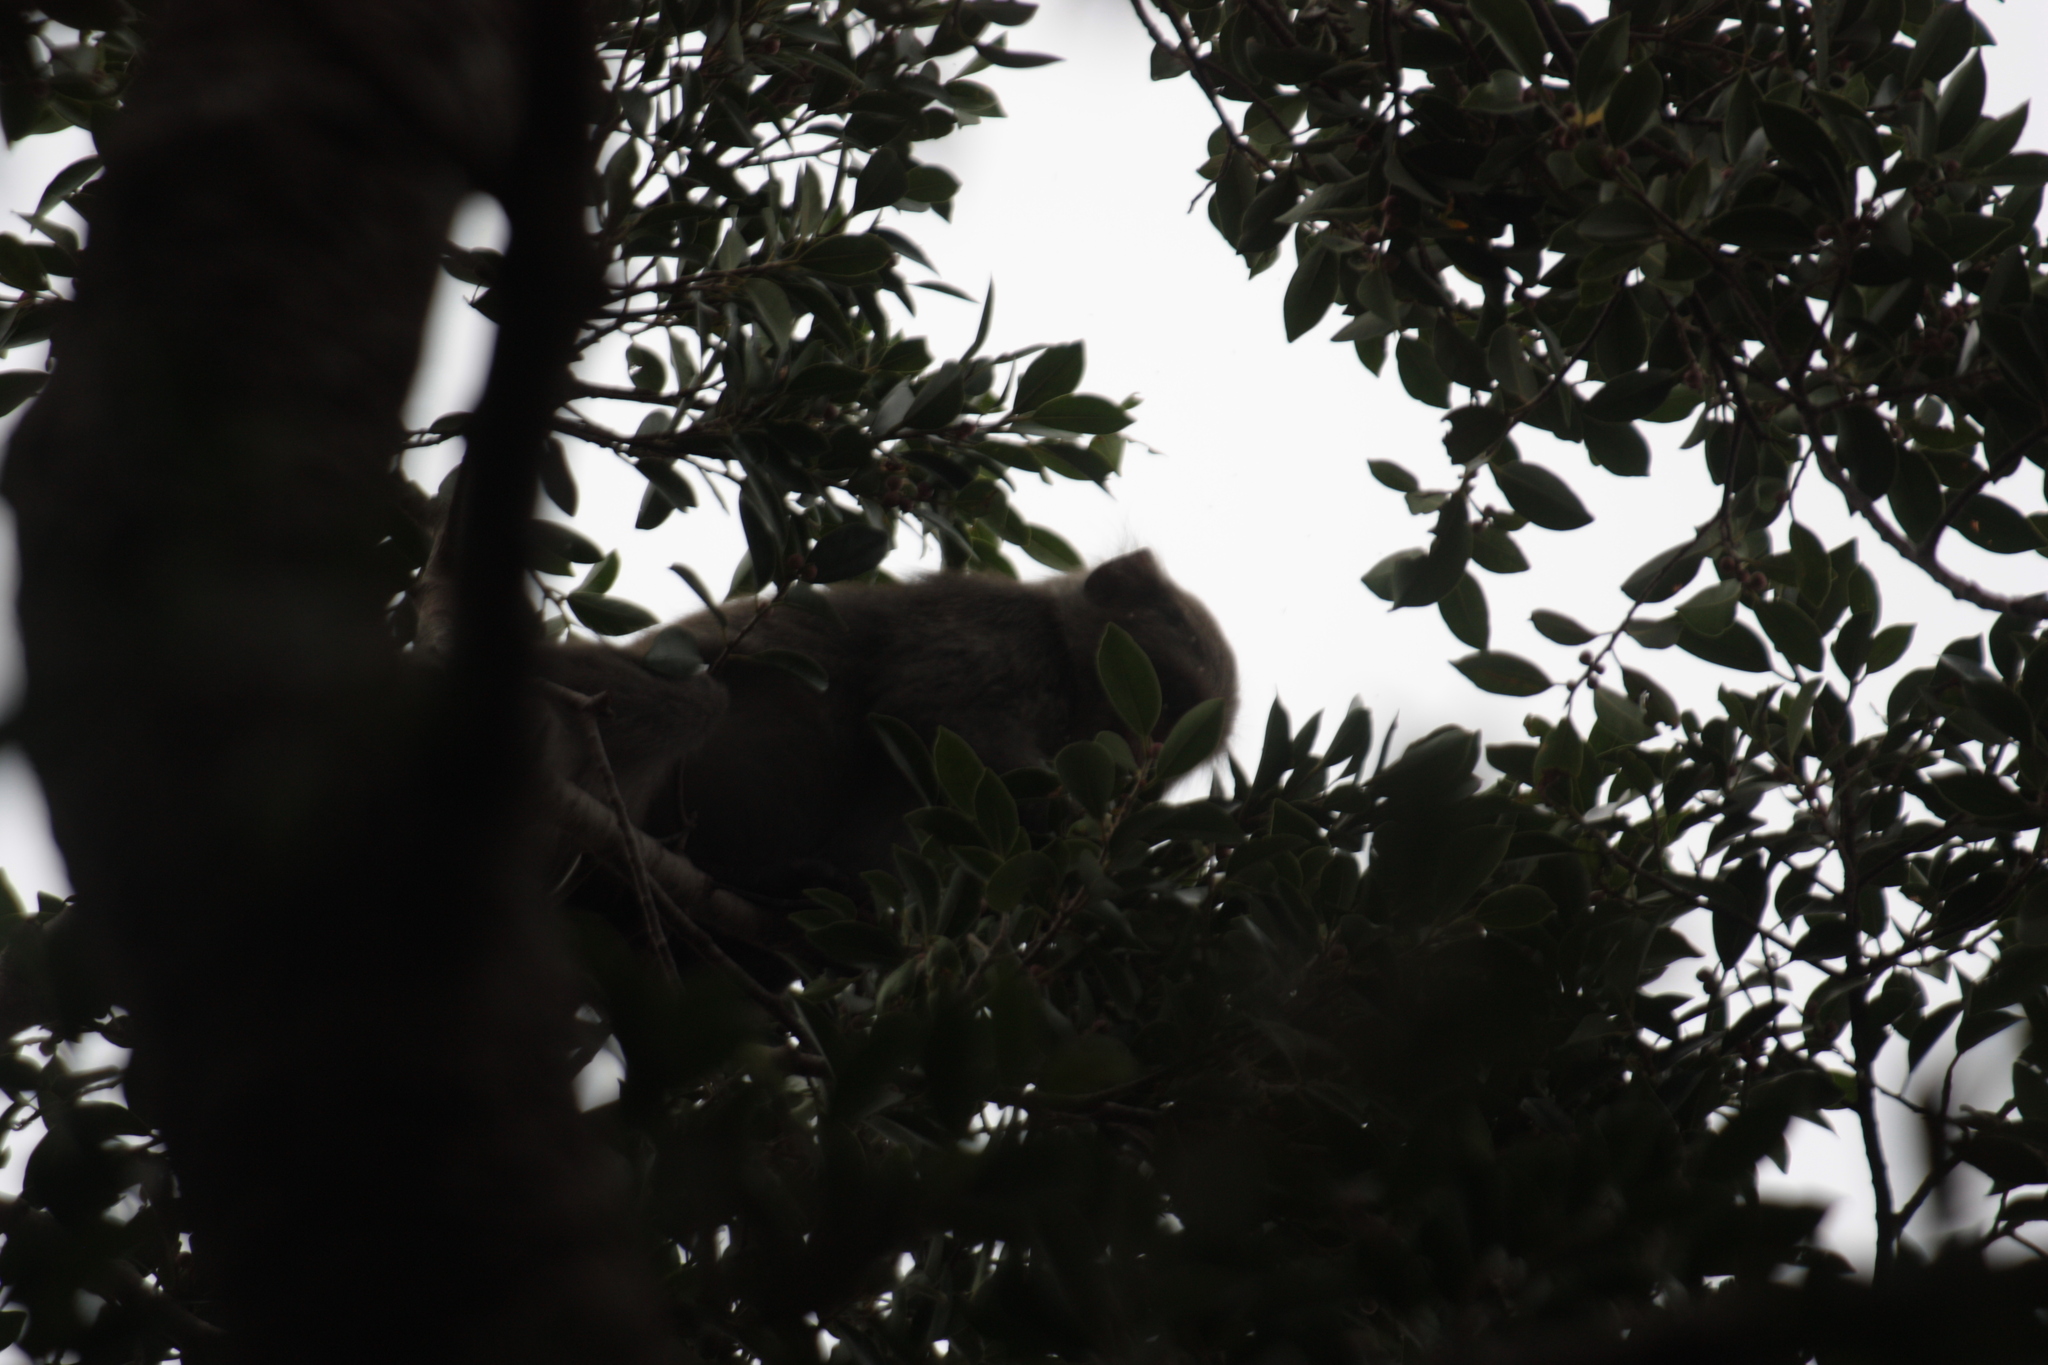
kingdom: Animalia
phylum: Chordata
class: Mammalia
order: Primates
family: Cercopithecidae
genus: Macaca
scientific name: Macaca cyclopis
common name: Formosan rock macaque
